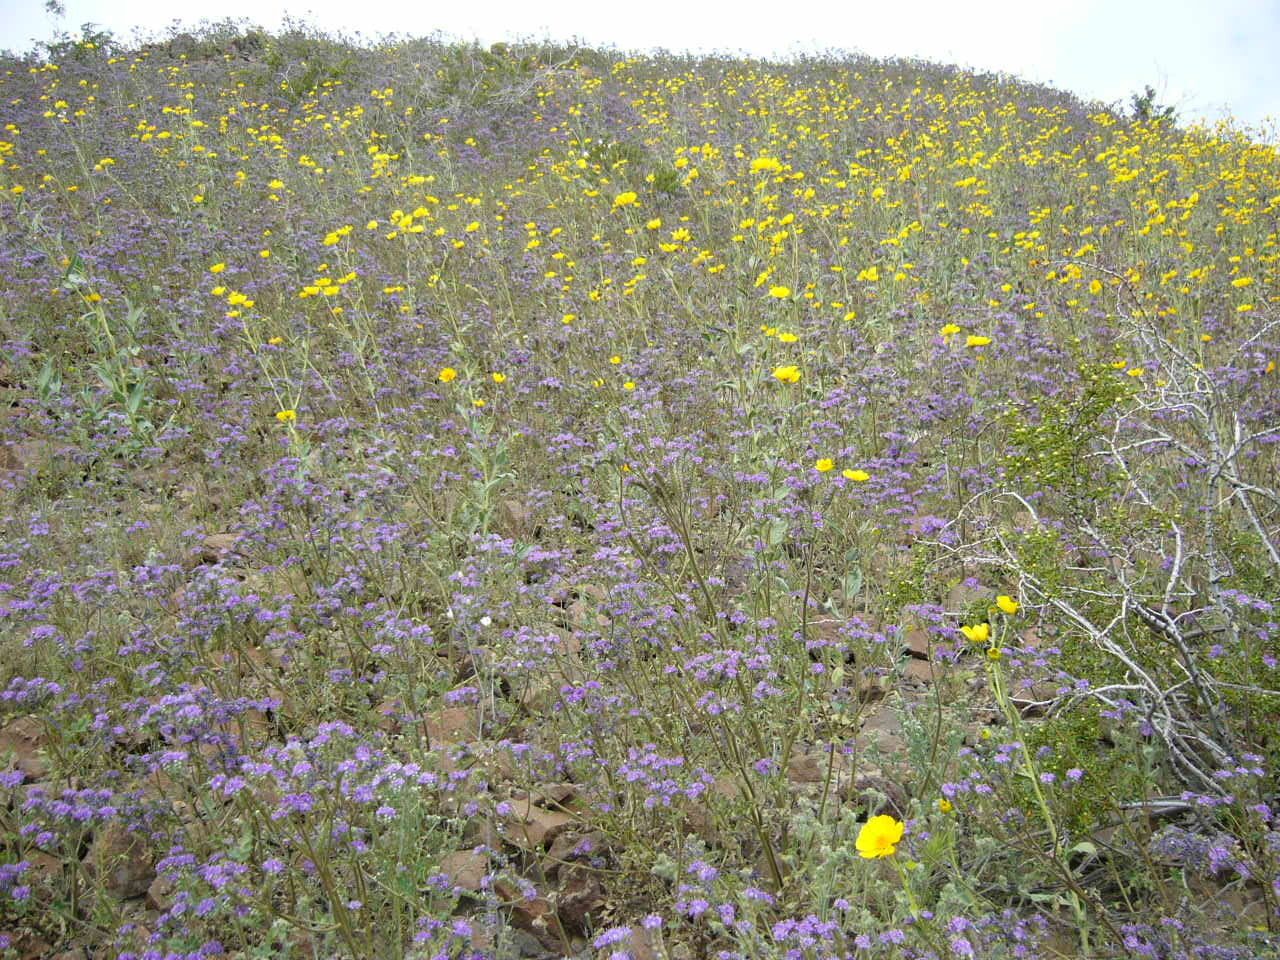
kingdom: Plantae
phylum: Tracheophyta
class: Magnoliopsida
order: Boraginales
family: Hydrophyllaceae
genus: Phacelia
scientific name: Phacelia crenulata
